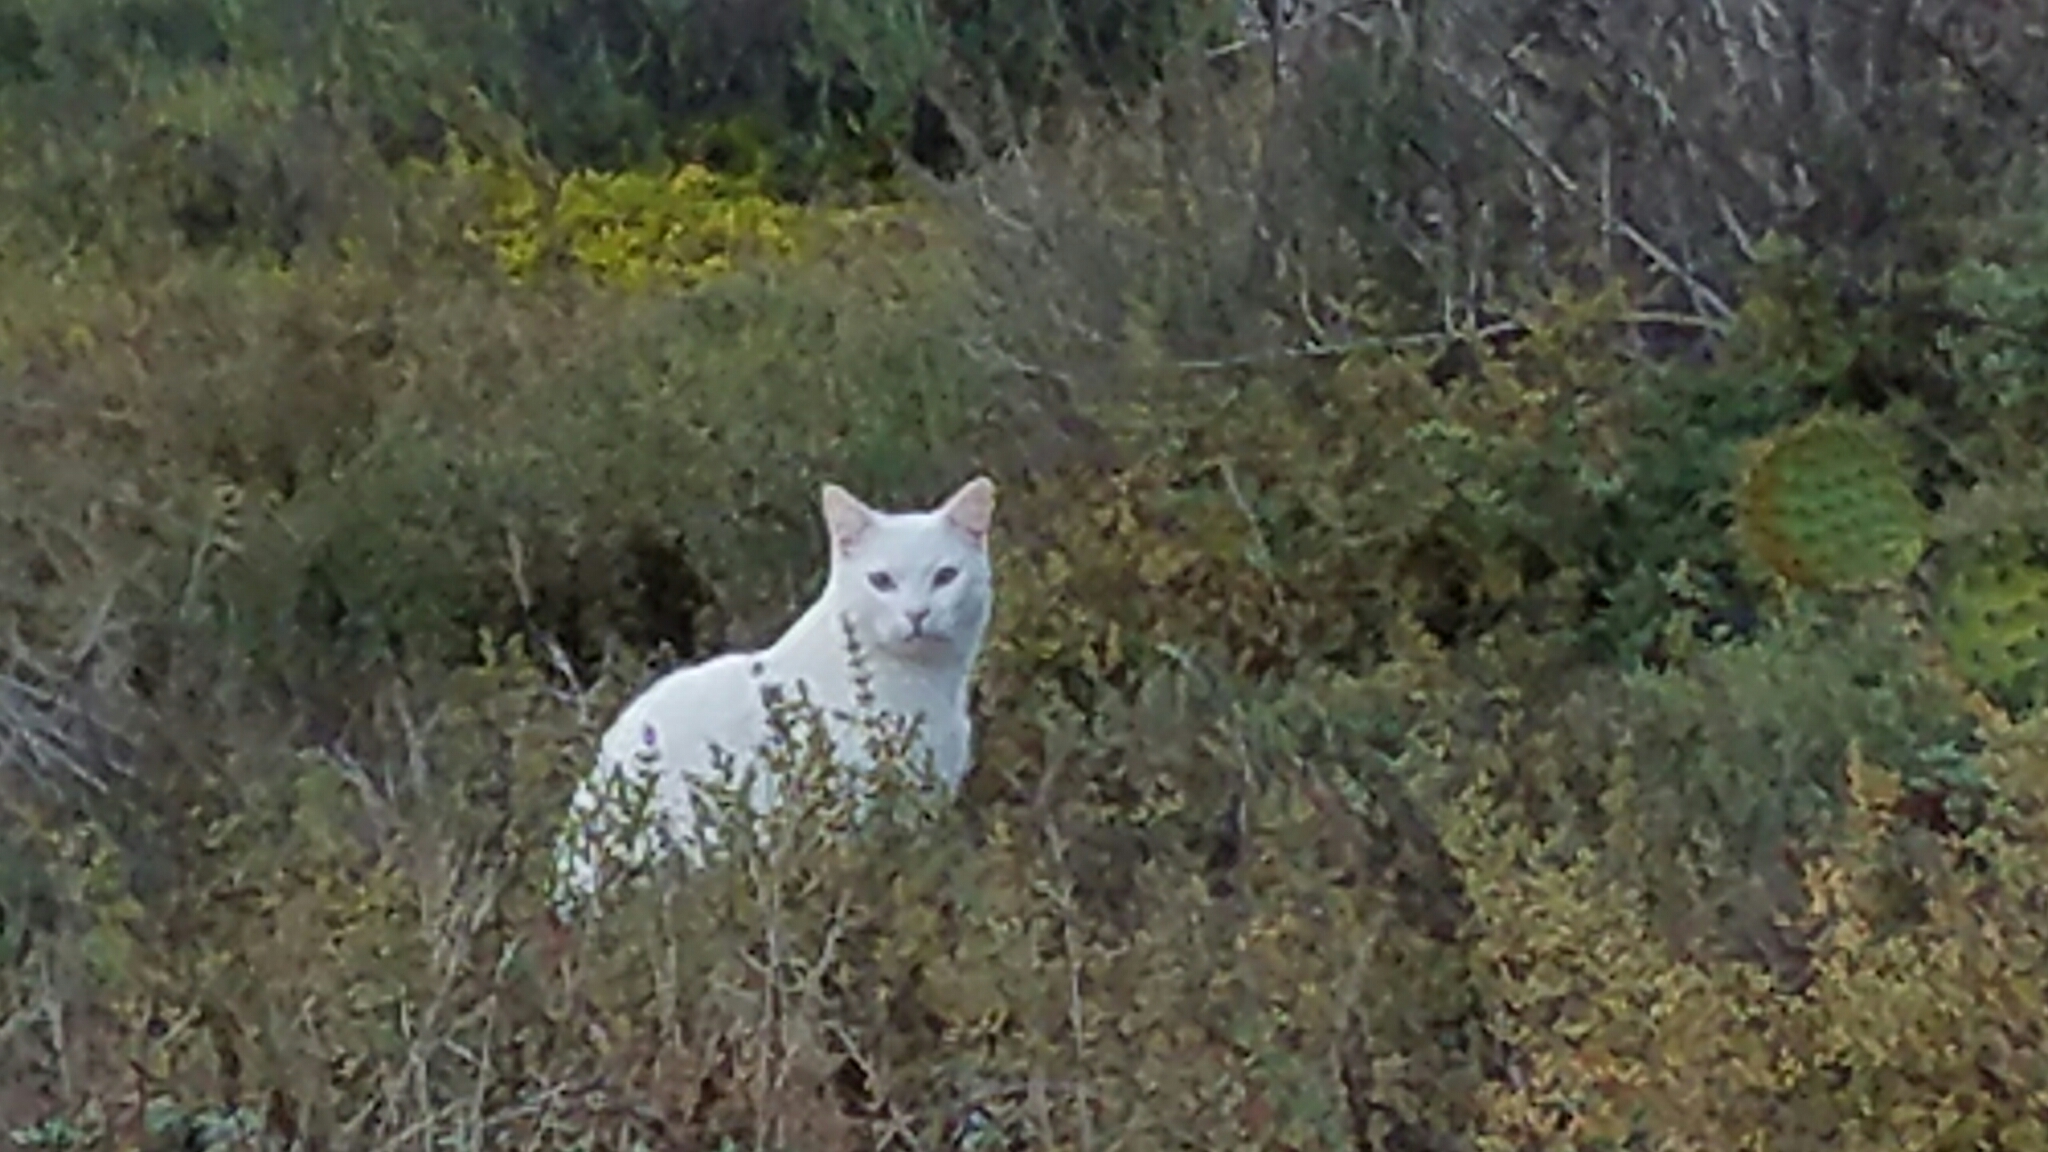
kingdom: Animalia
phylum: Chordata
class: Mammalia
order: Carnivora
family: Felidae
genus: Felis
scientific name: Felis catus
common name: Domestic cat
